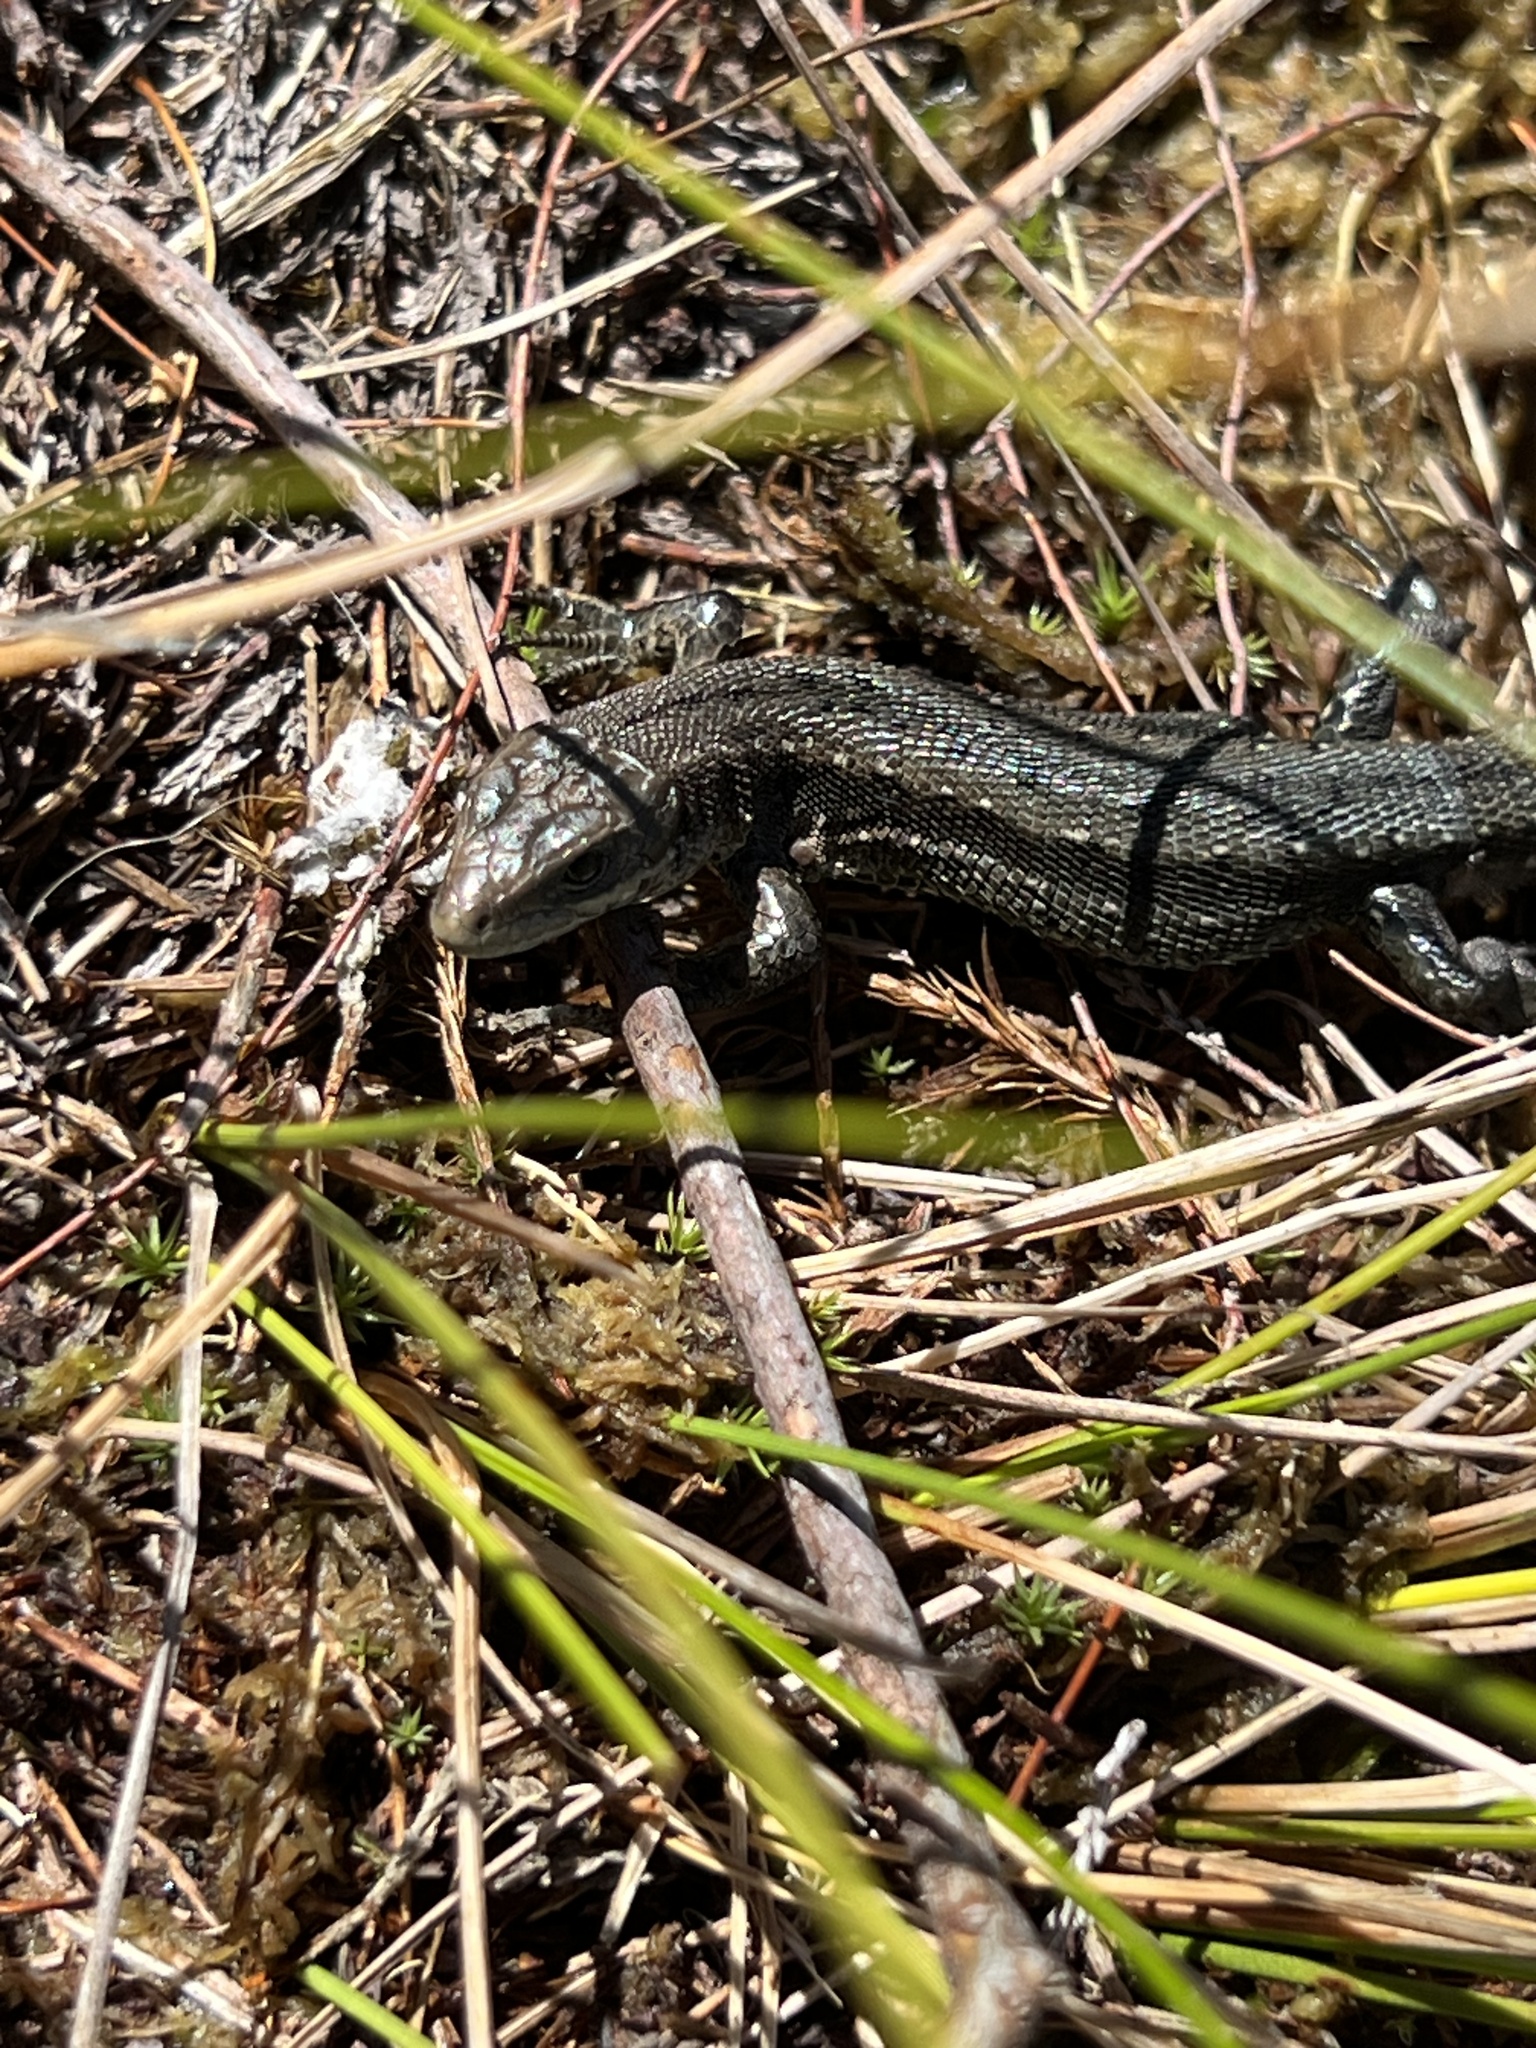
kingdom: Animalia
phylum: Chordata
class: Squamata
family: Lacertidae
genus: Zootoca
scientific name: Zootoca vivipara
